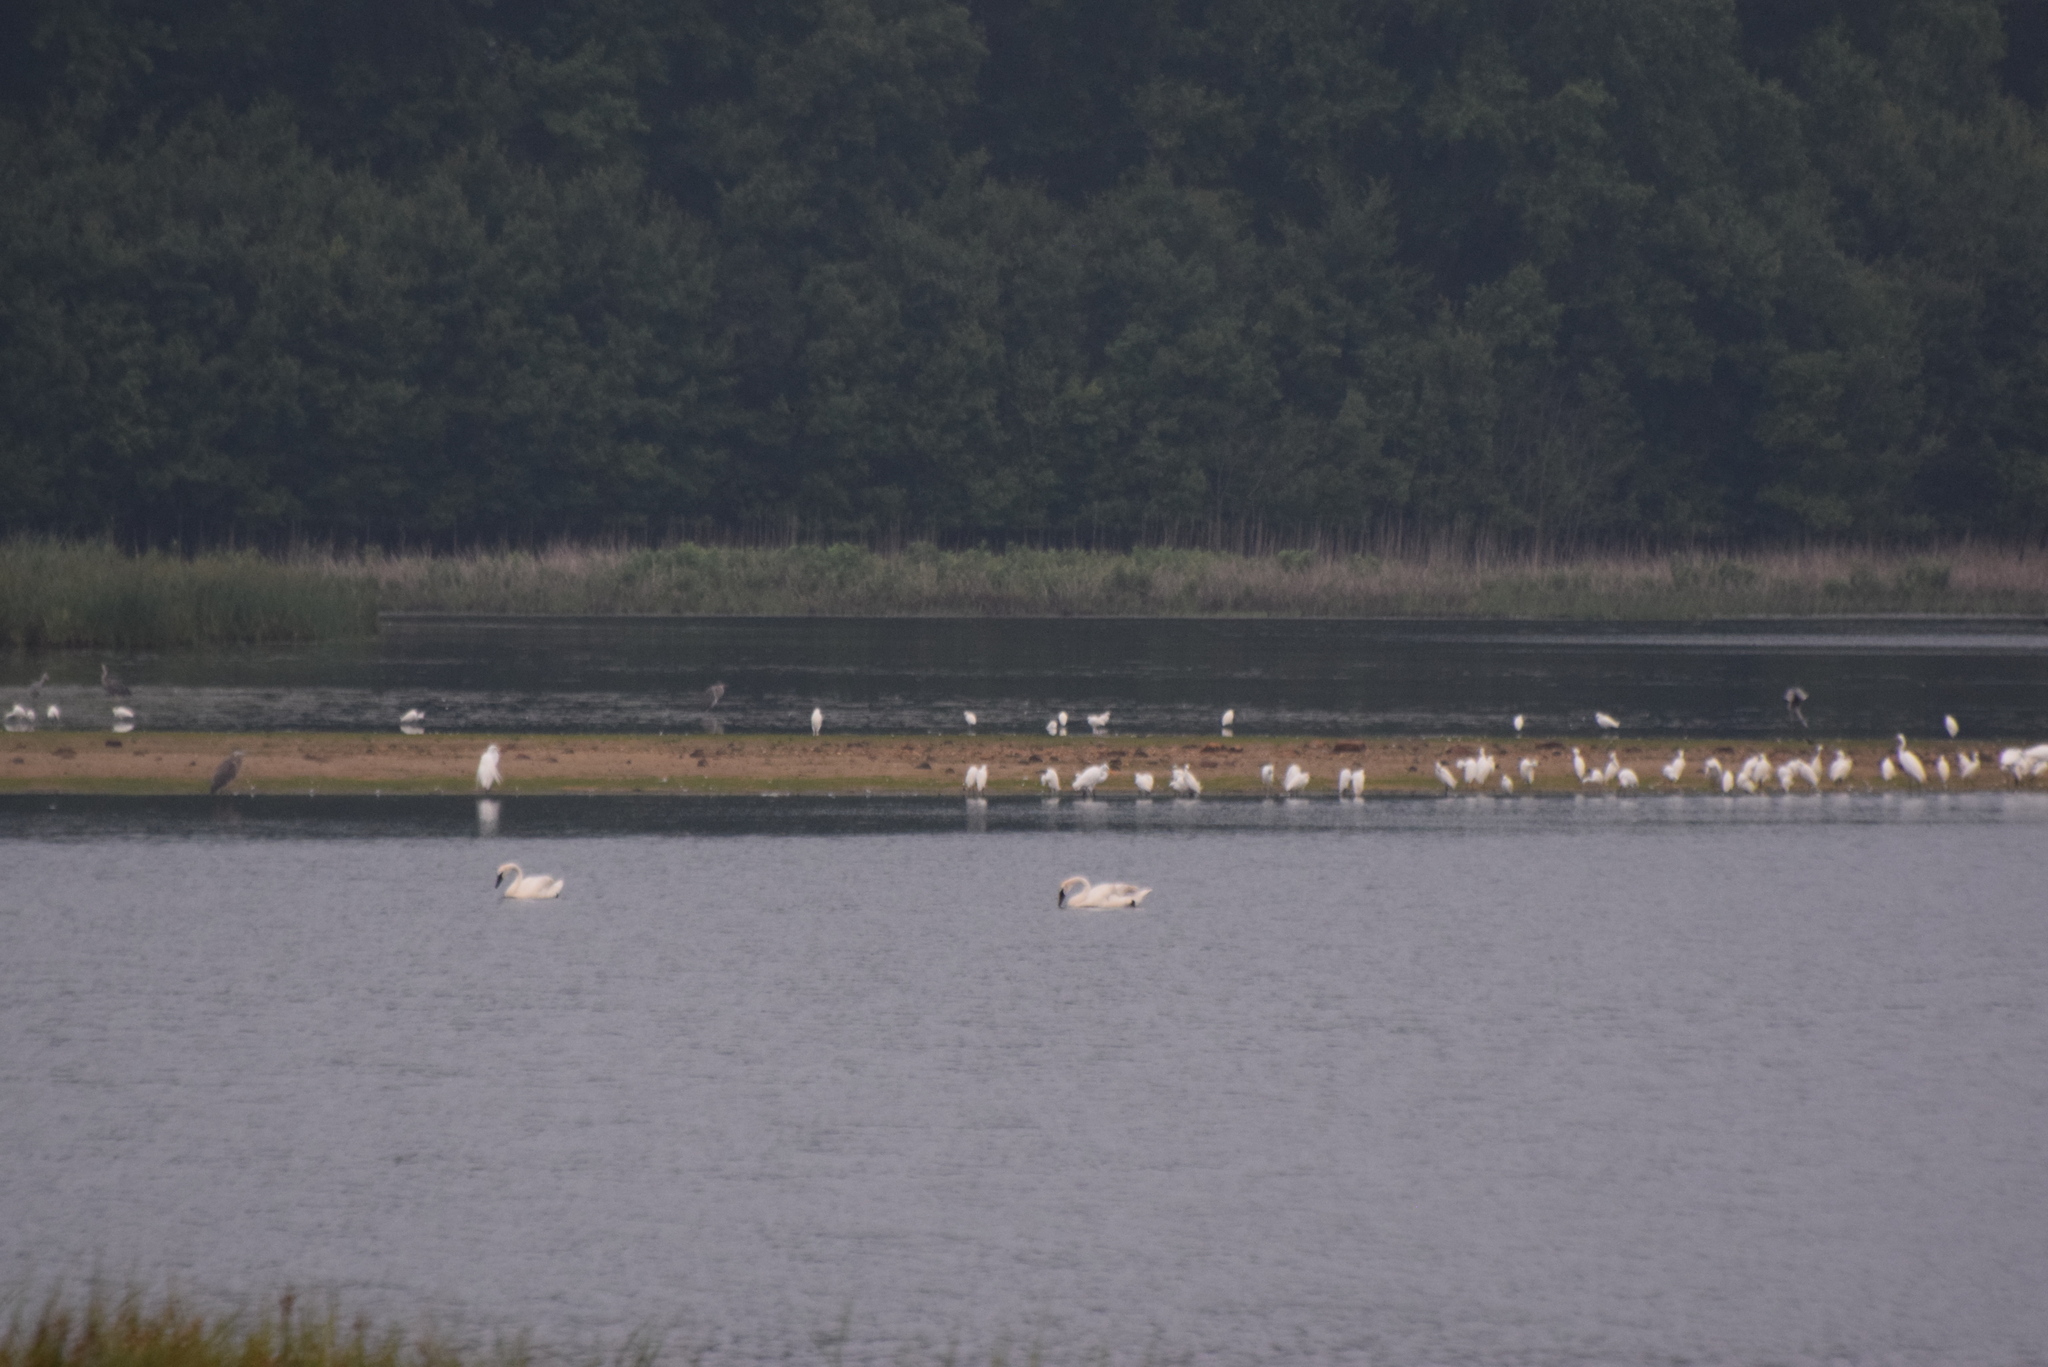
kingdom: Animalia
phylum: Chordata
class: Aves
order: Anseriformes
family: Anatidae
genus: Cygnus
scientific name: Cygnus buccinator
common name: Trumpeter swan
